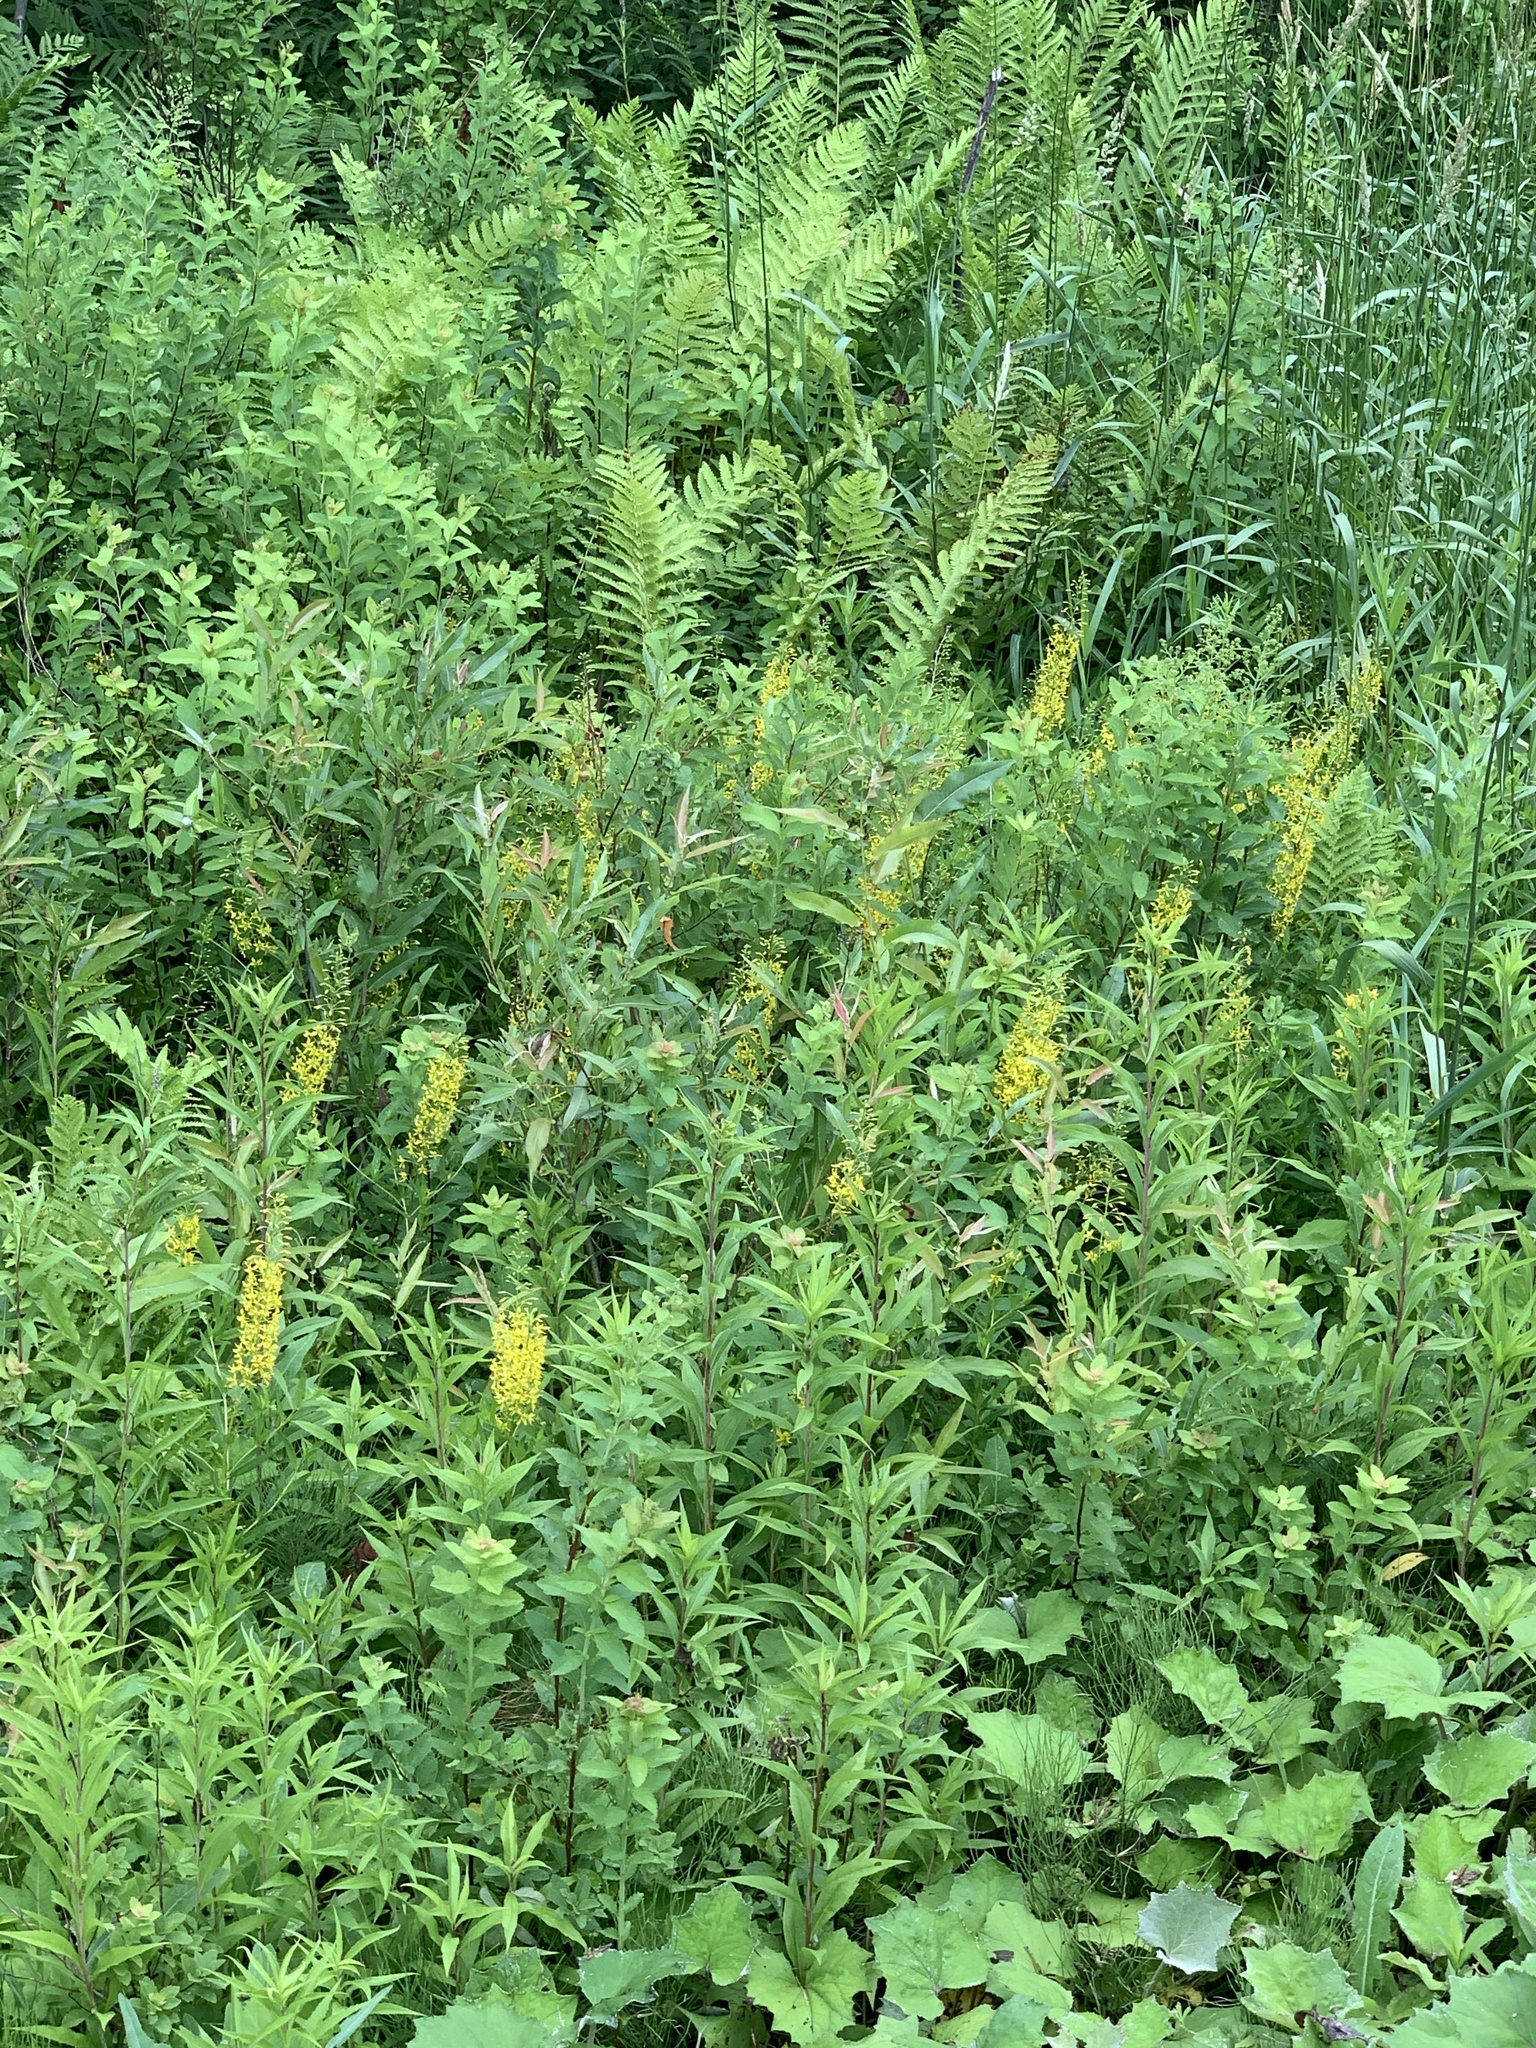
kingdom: Plantae
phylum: Tracheophyta
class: Magnoliopsida
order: Asterales
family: Asteraceae
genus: Tussilago
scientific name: Tussilago farfara
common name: Coltsfoot
